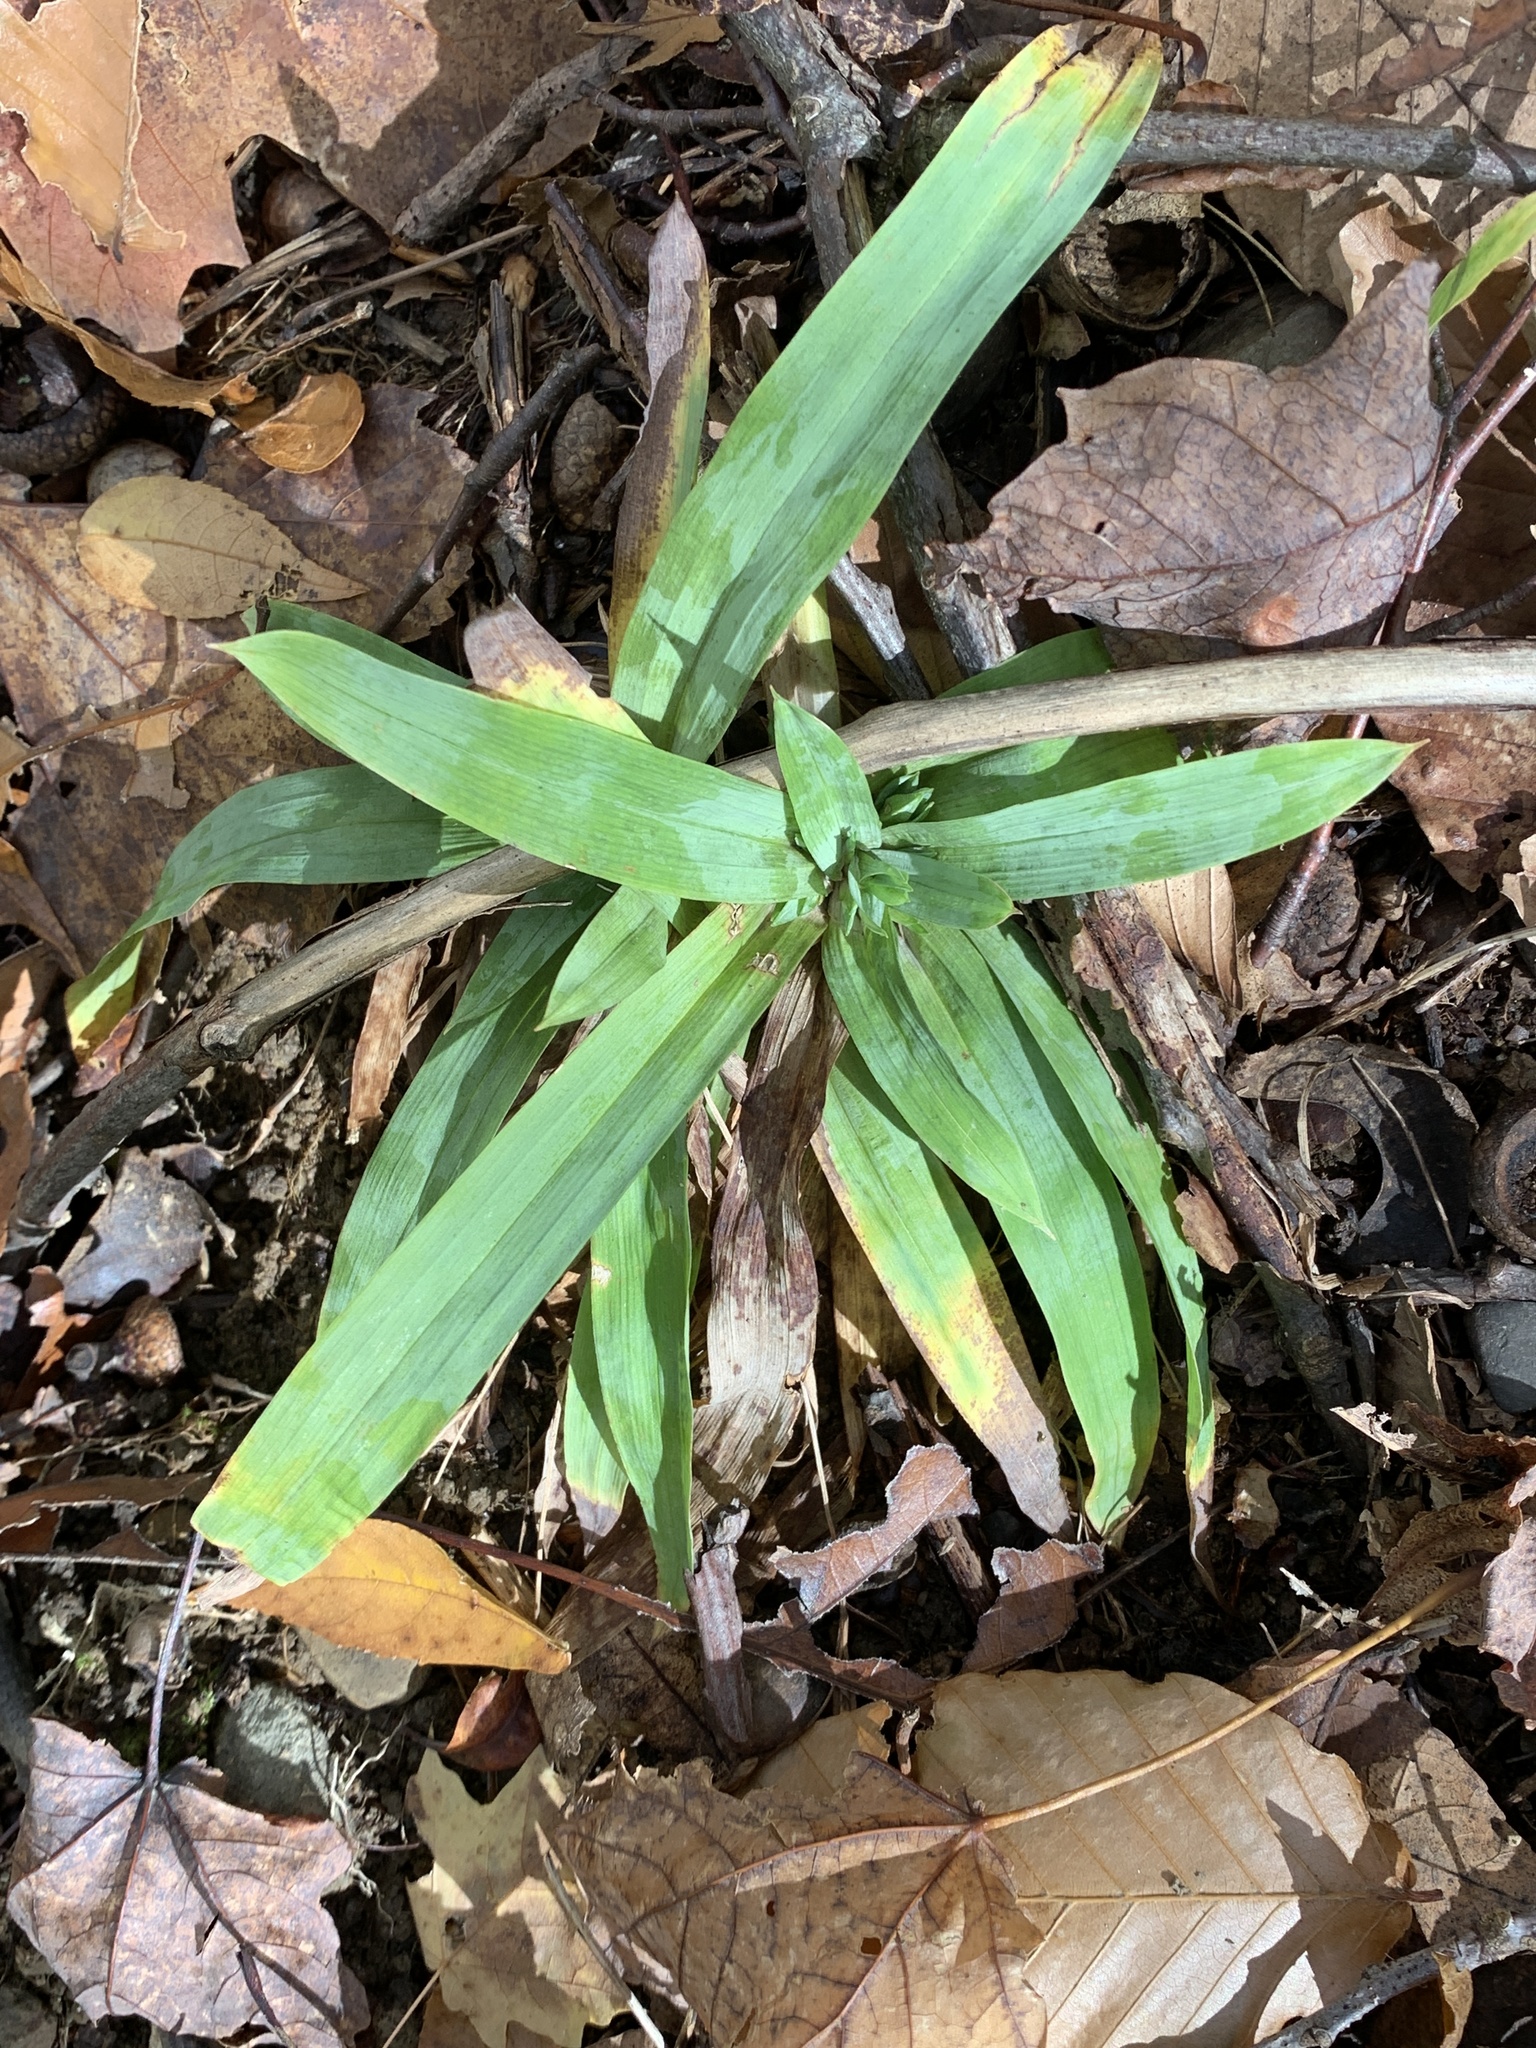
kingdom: Plantae
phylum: Tracheophyta
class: Liliopsida
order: Poales
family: Cyperaceae
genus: Carex
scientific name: Carex platyphylla
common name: Broad-leaved sedge
